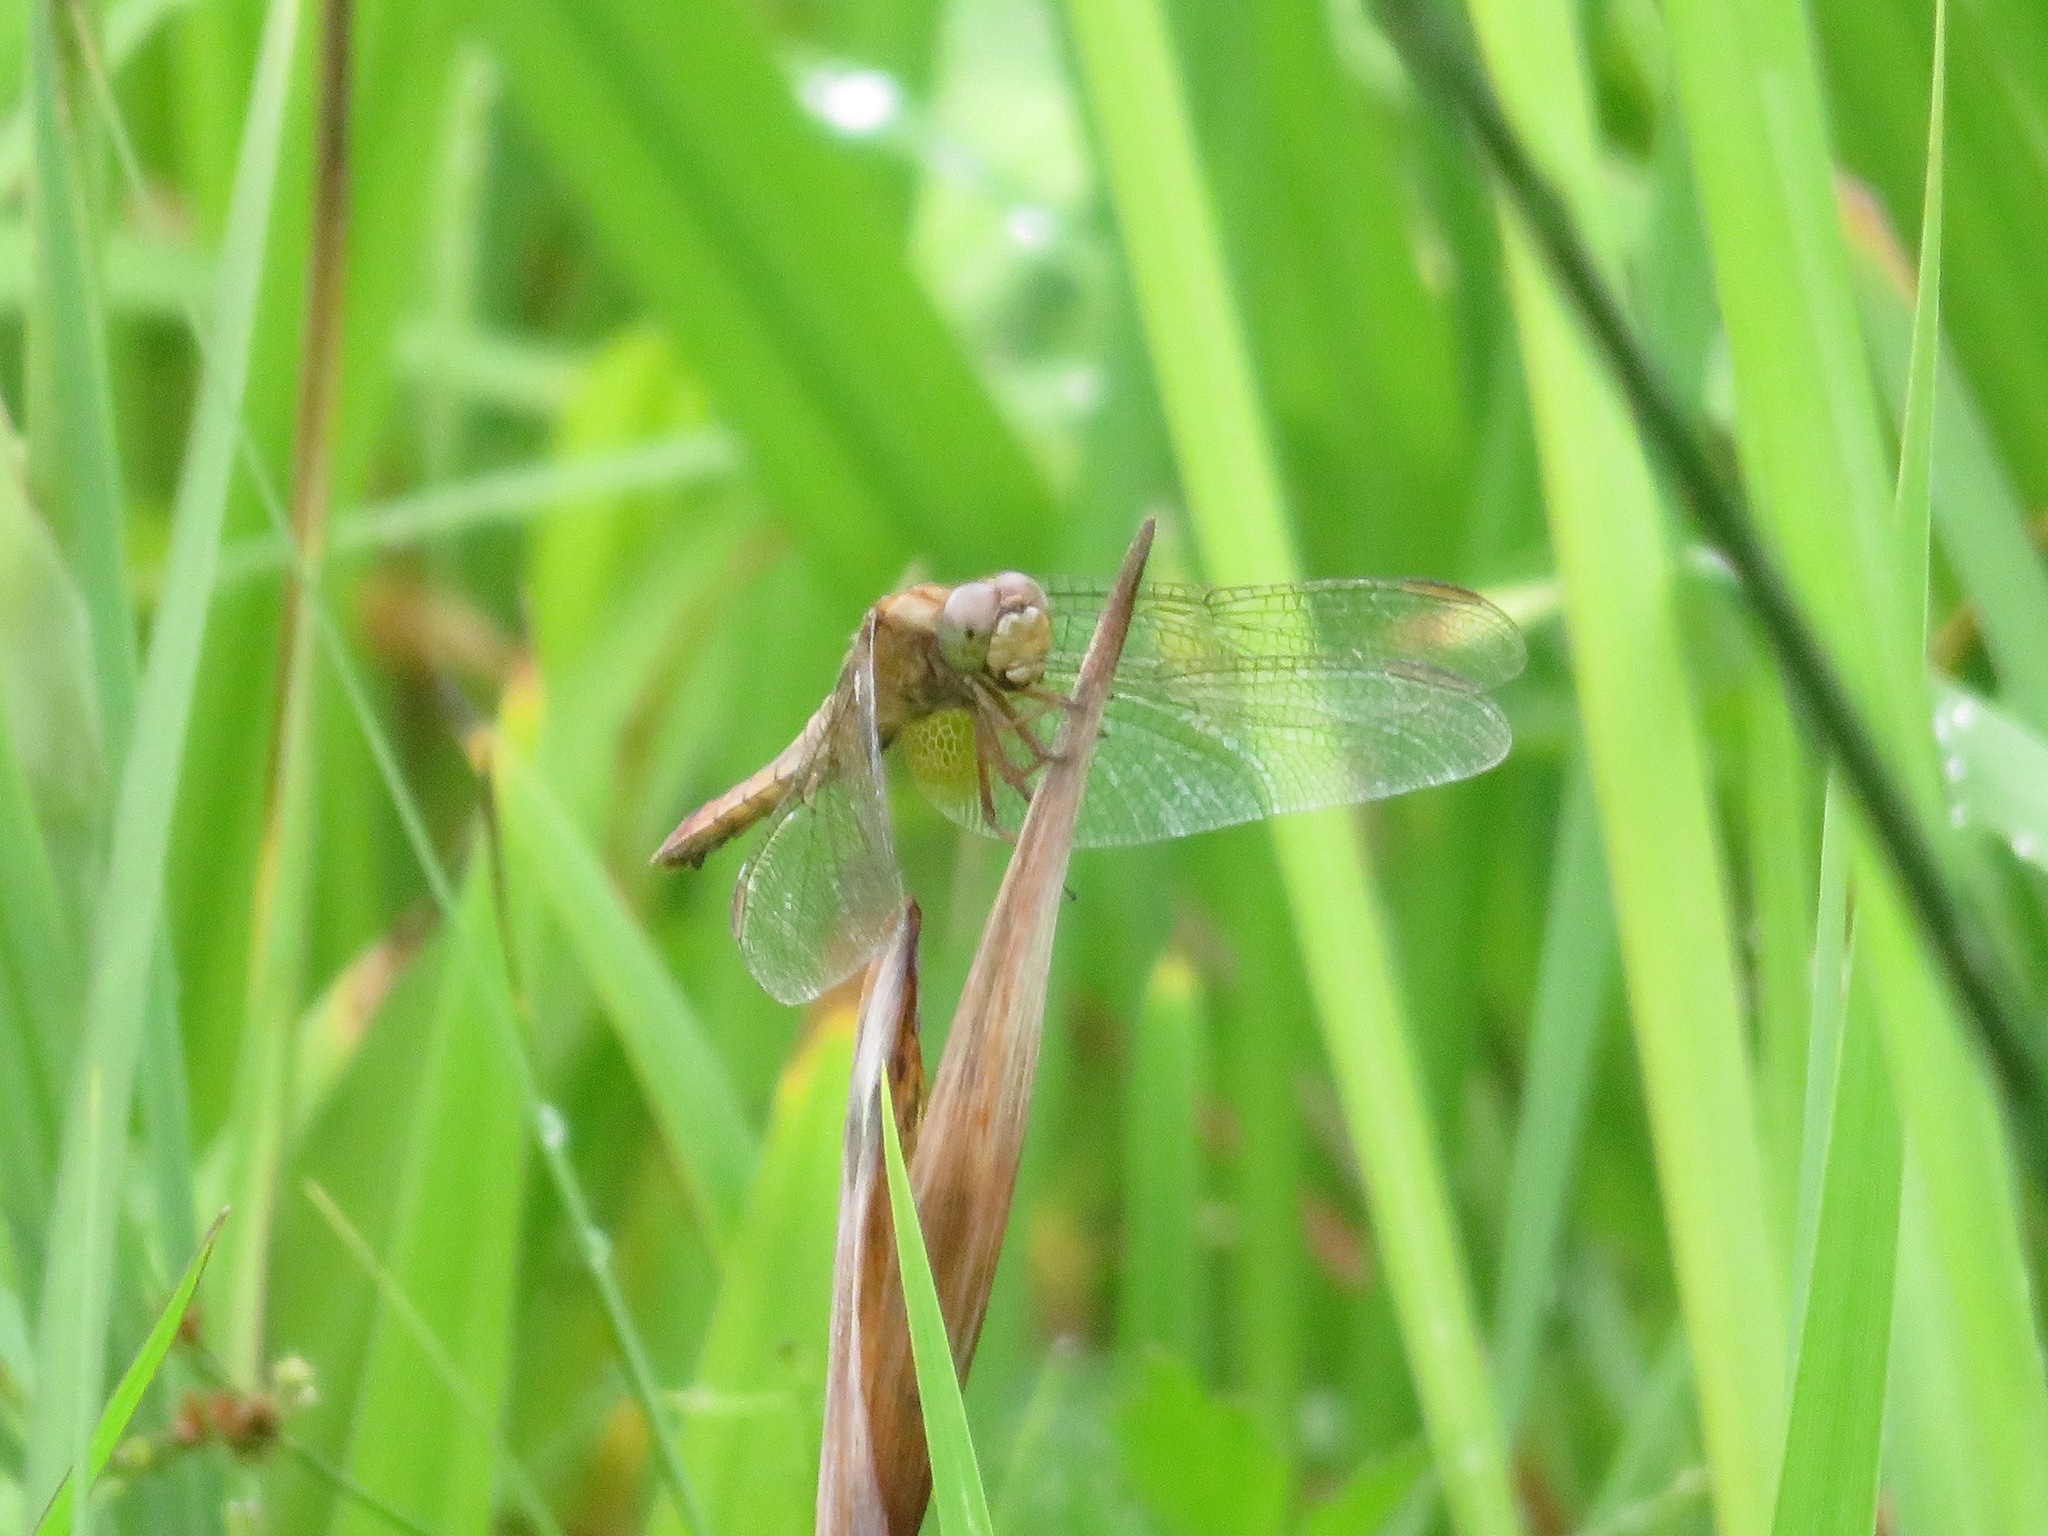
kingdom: Animalia
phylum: Arthropoda
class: Insecta
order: Odonata
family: Libellulidae
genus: Crocothemis
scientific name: Crocothemis servilia
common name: Scarlet skimmer
